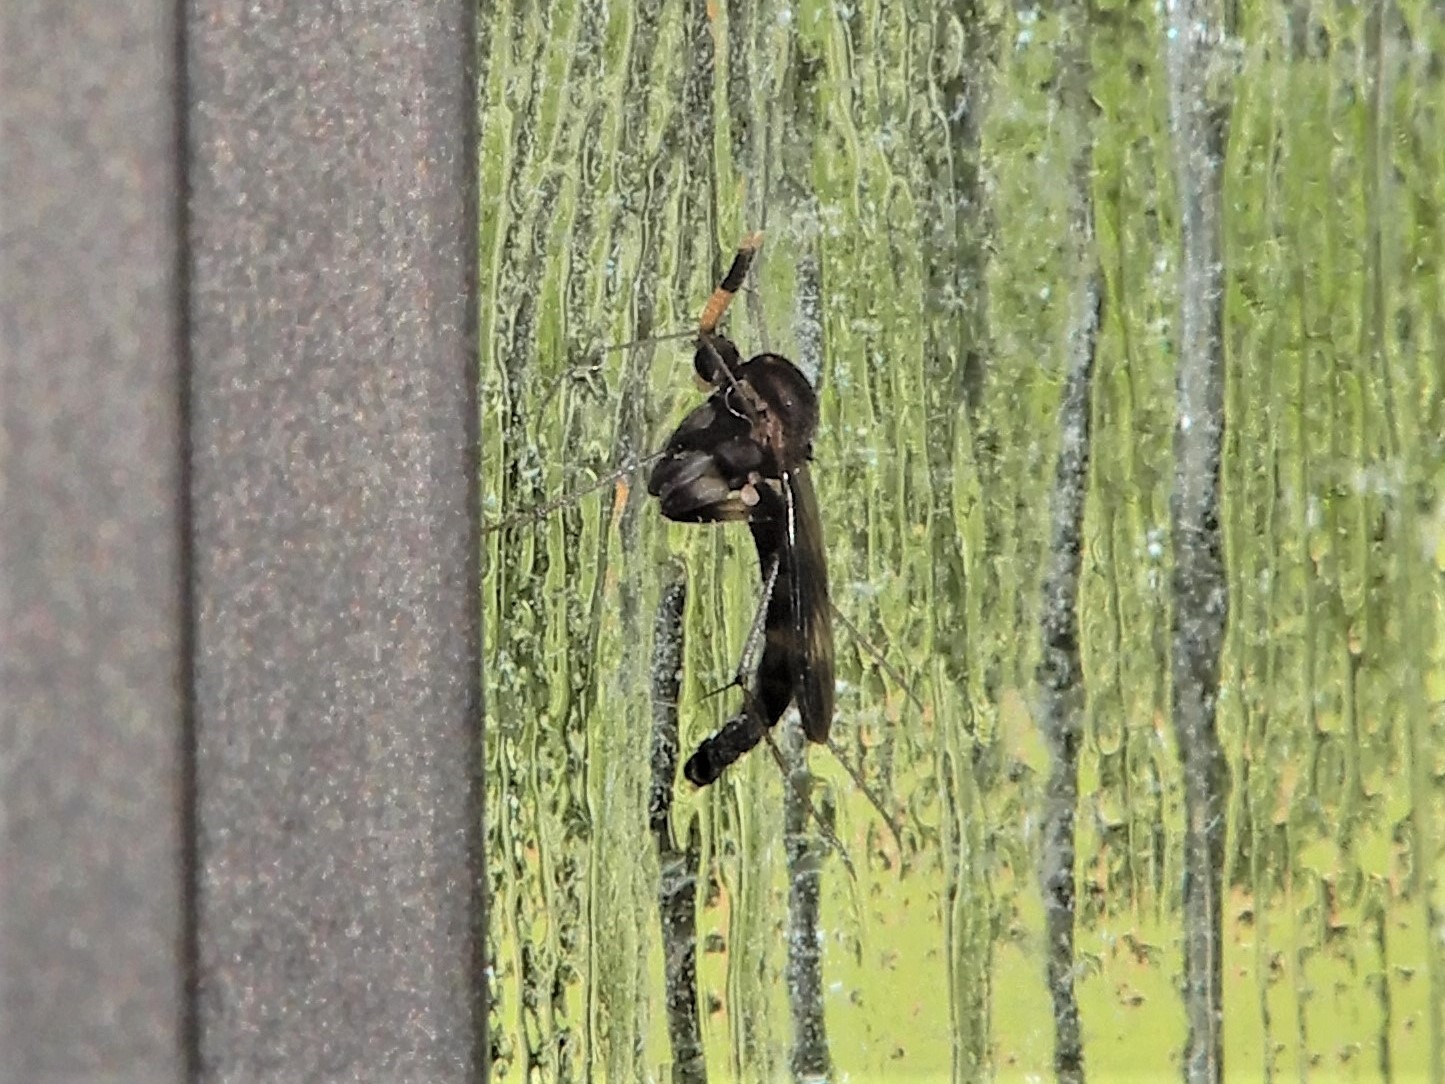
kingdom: Animalia
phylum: Arthropoda
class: Insecta
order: Diptera
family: Keroplatidae
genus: Cerotelion
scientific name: Cerotelion leucoceras
